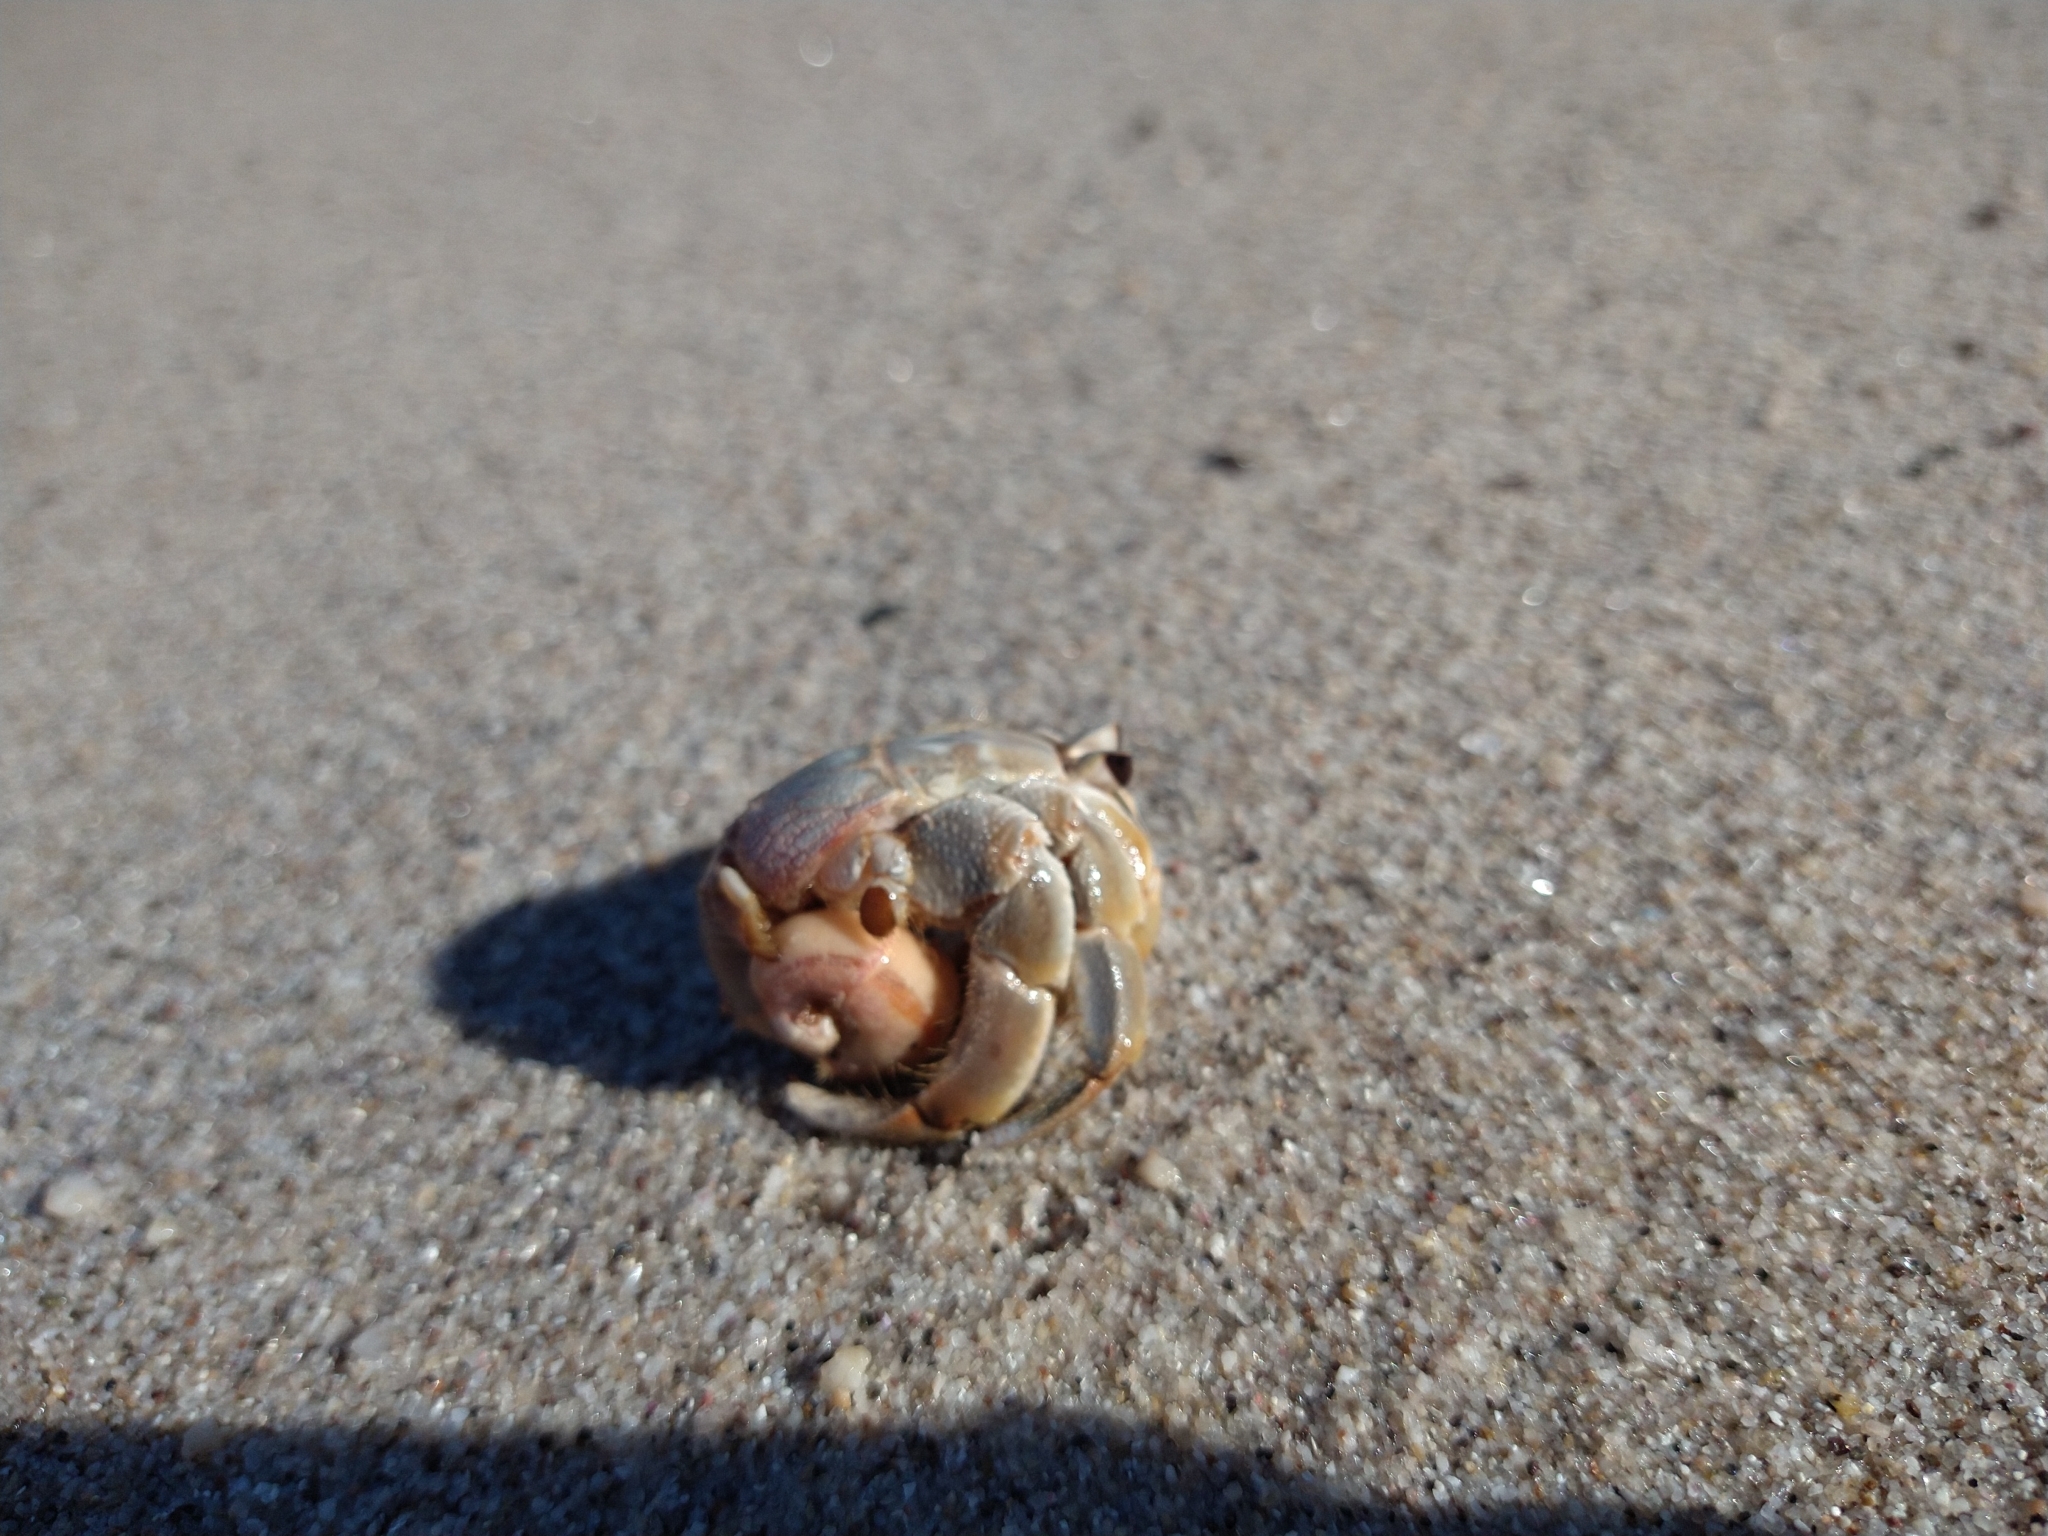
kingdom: Animalia
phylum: Arthropoda
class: Malacostraca
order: Decapoda
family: Coenobitidae
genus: Coenobita
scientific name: Coenobita compressus
